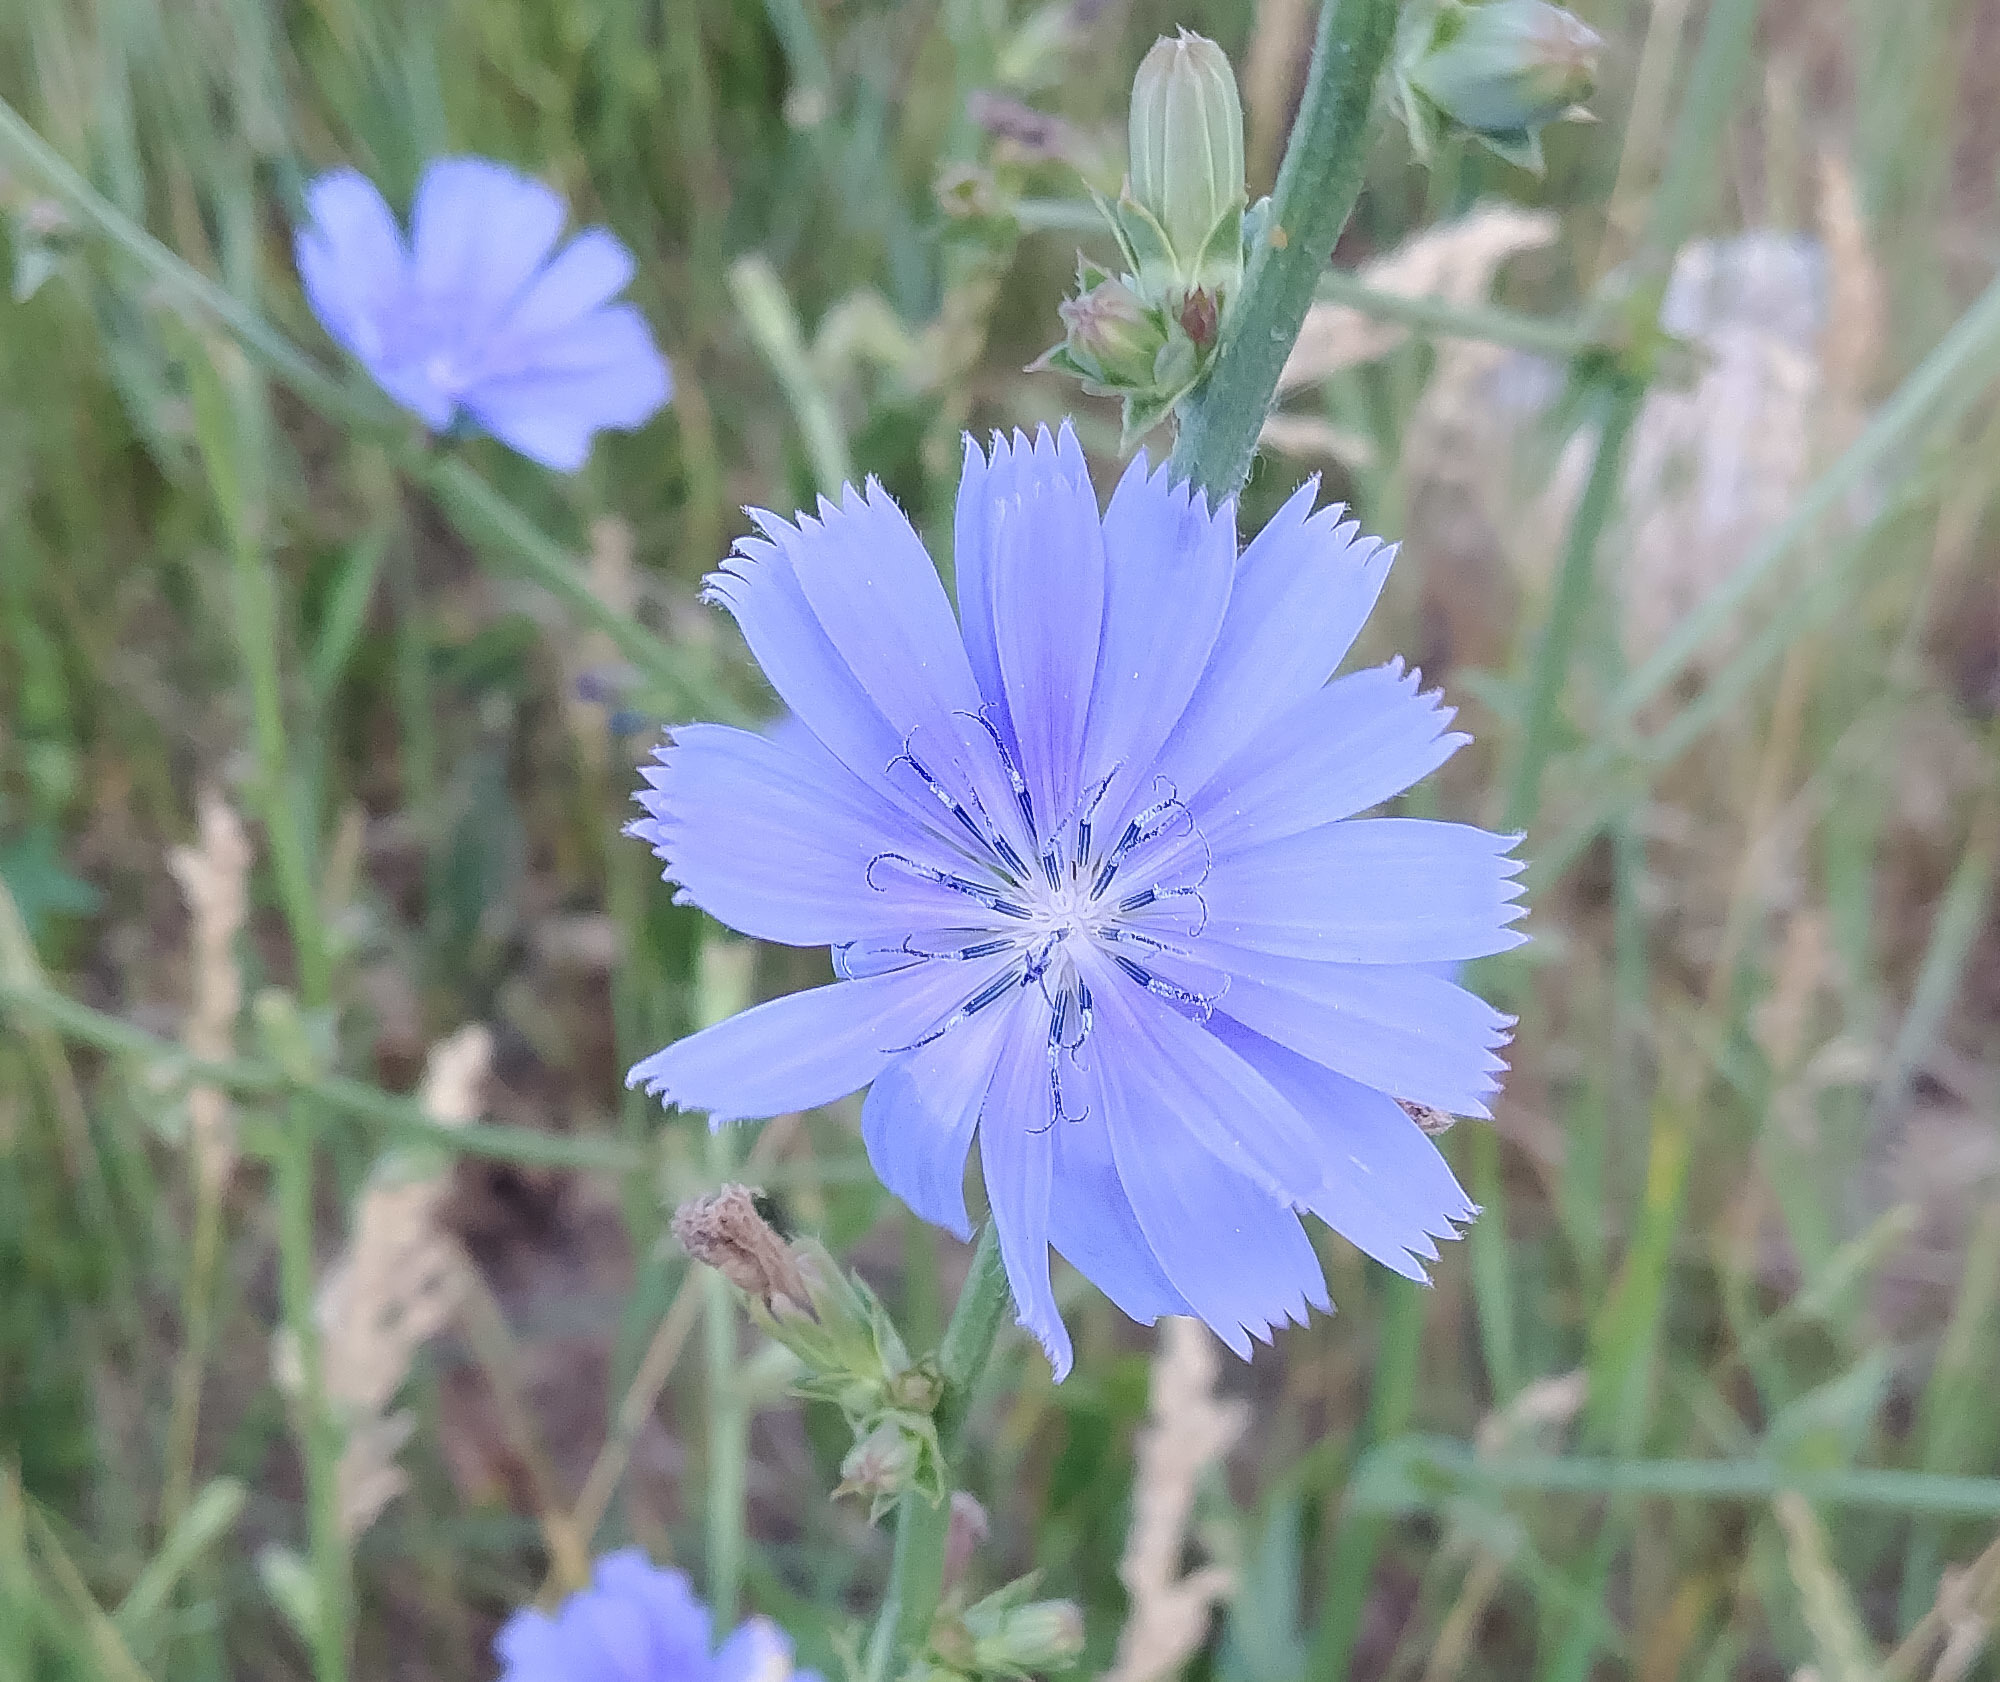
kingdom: Plantae
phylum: Tracheophyta
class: Magnoliopsida
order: Asterales
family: Asteraceae
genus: Cichorium
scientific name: Cichorium intybus
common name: Chicory
